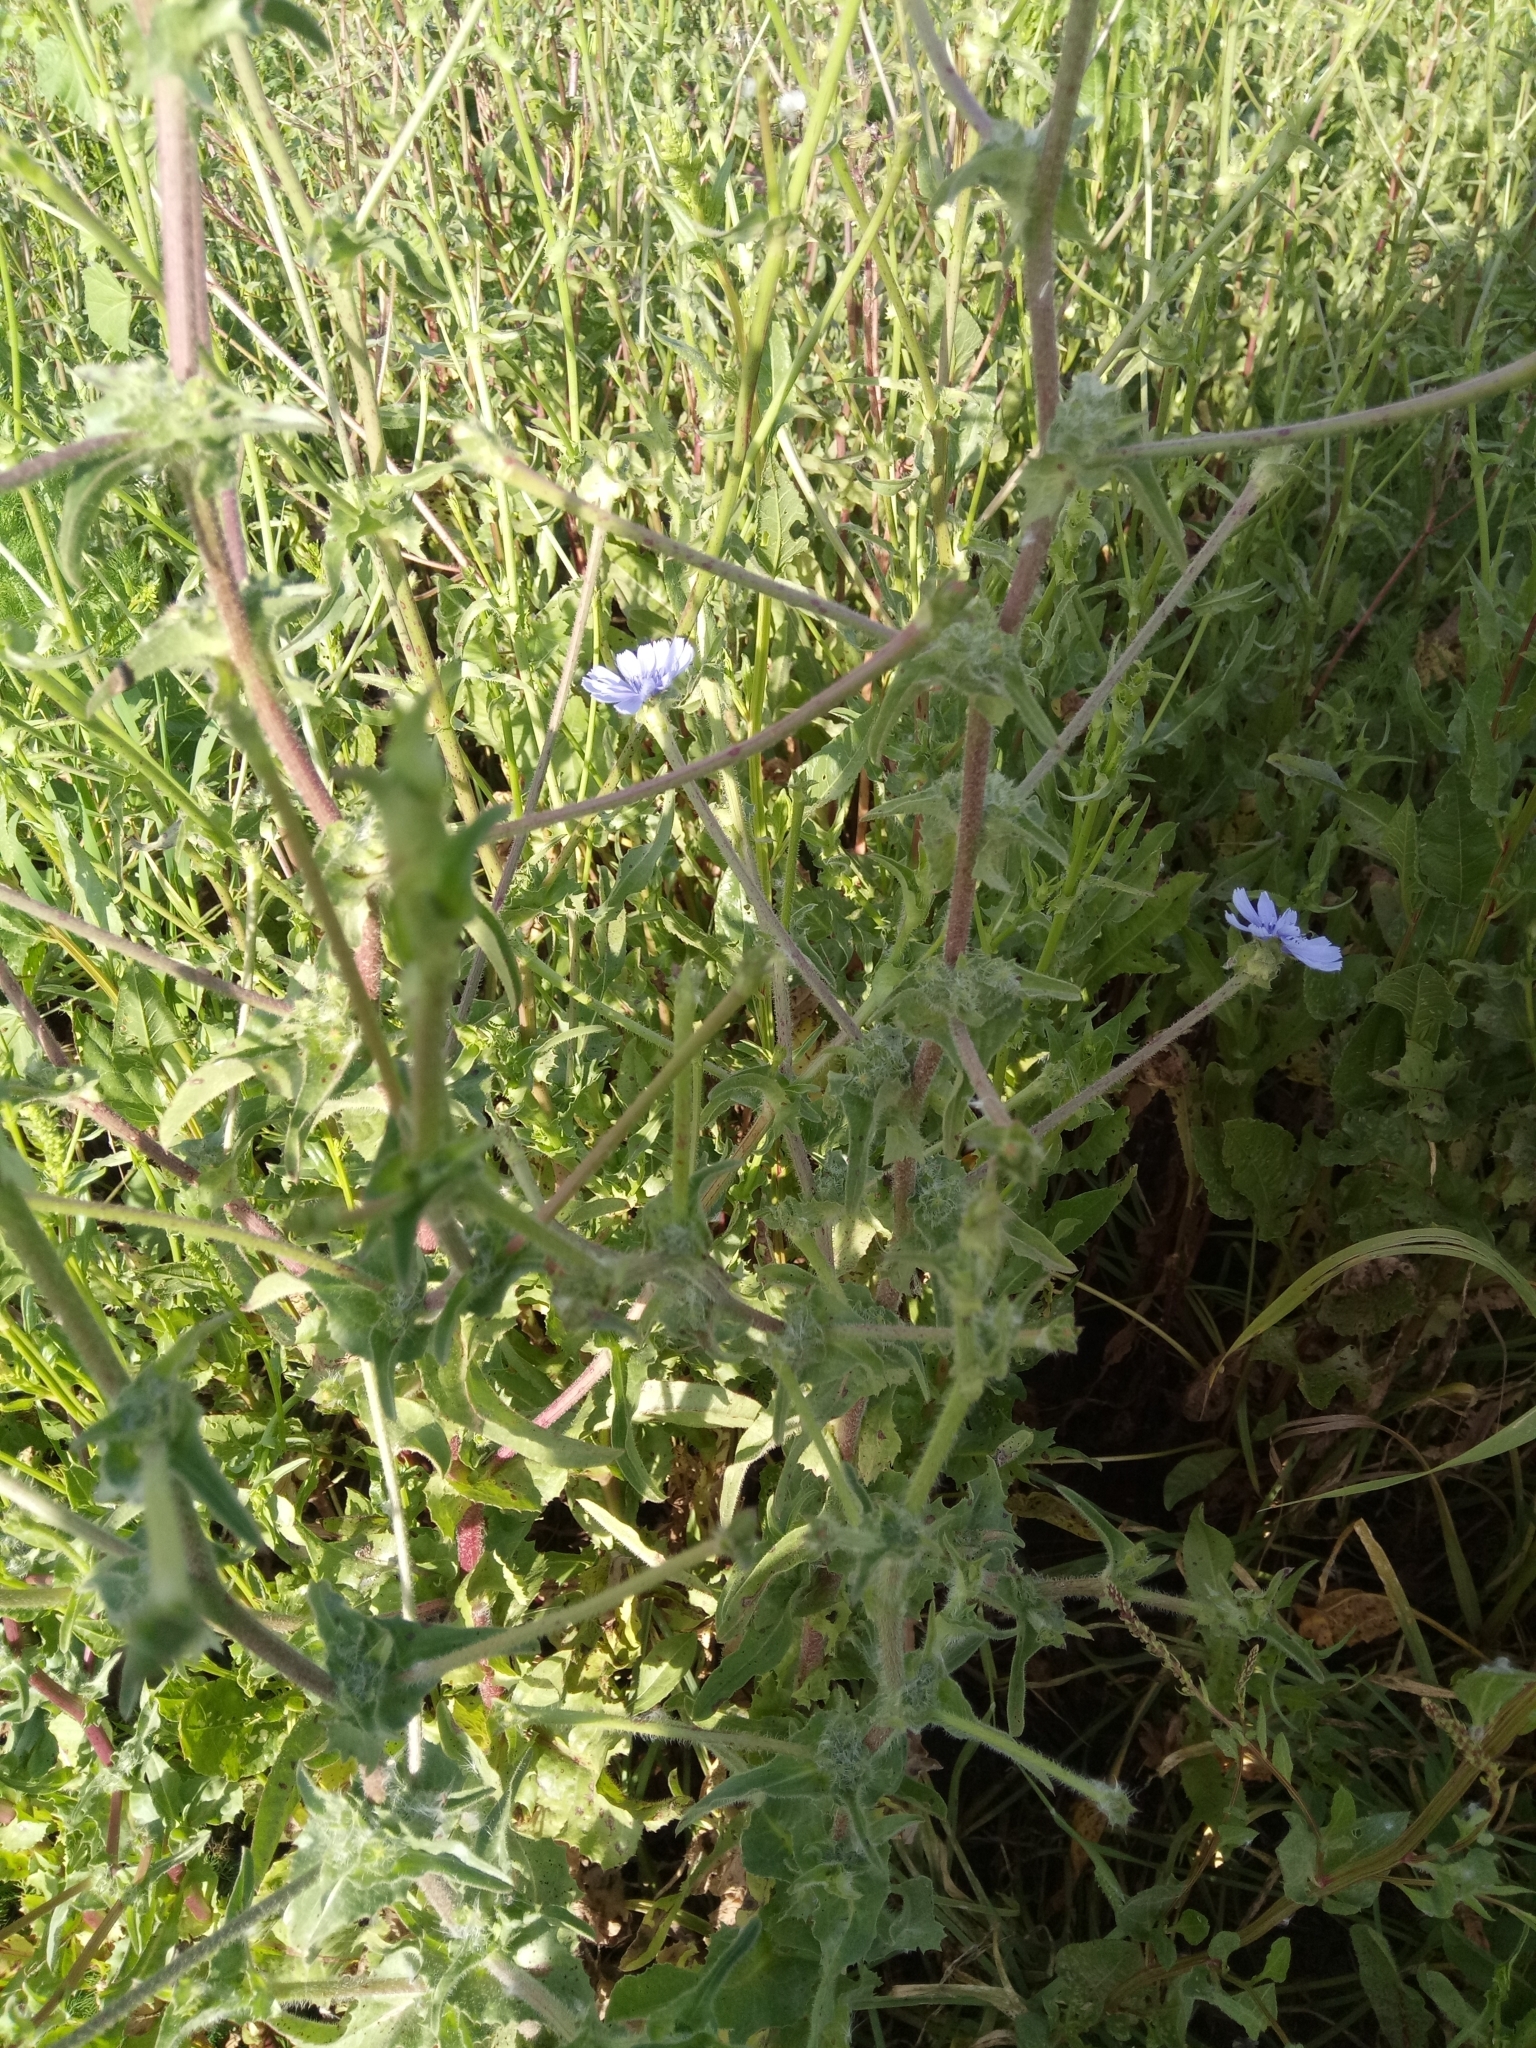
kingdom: Plantae
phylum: Tracheophyta
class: Magnoliopsida
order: Asterales
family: Asteraceae
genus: Cichorium
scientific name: Cichorium intybus
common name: Chicory
